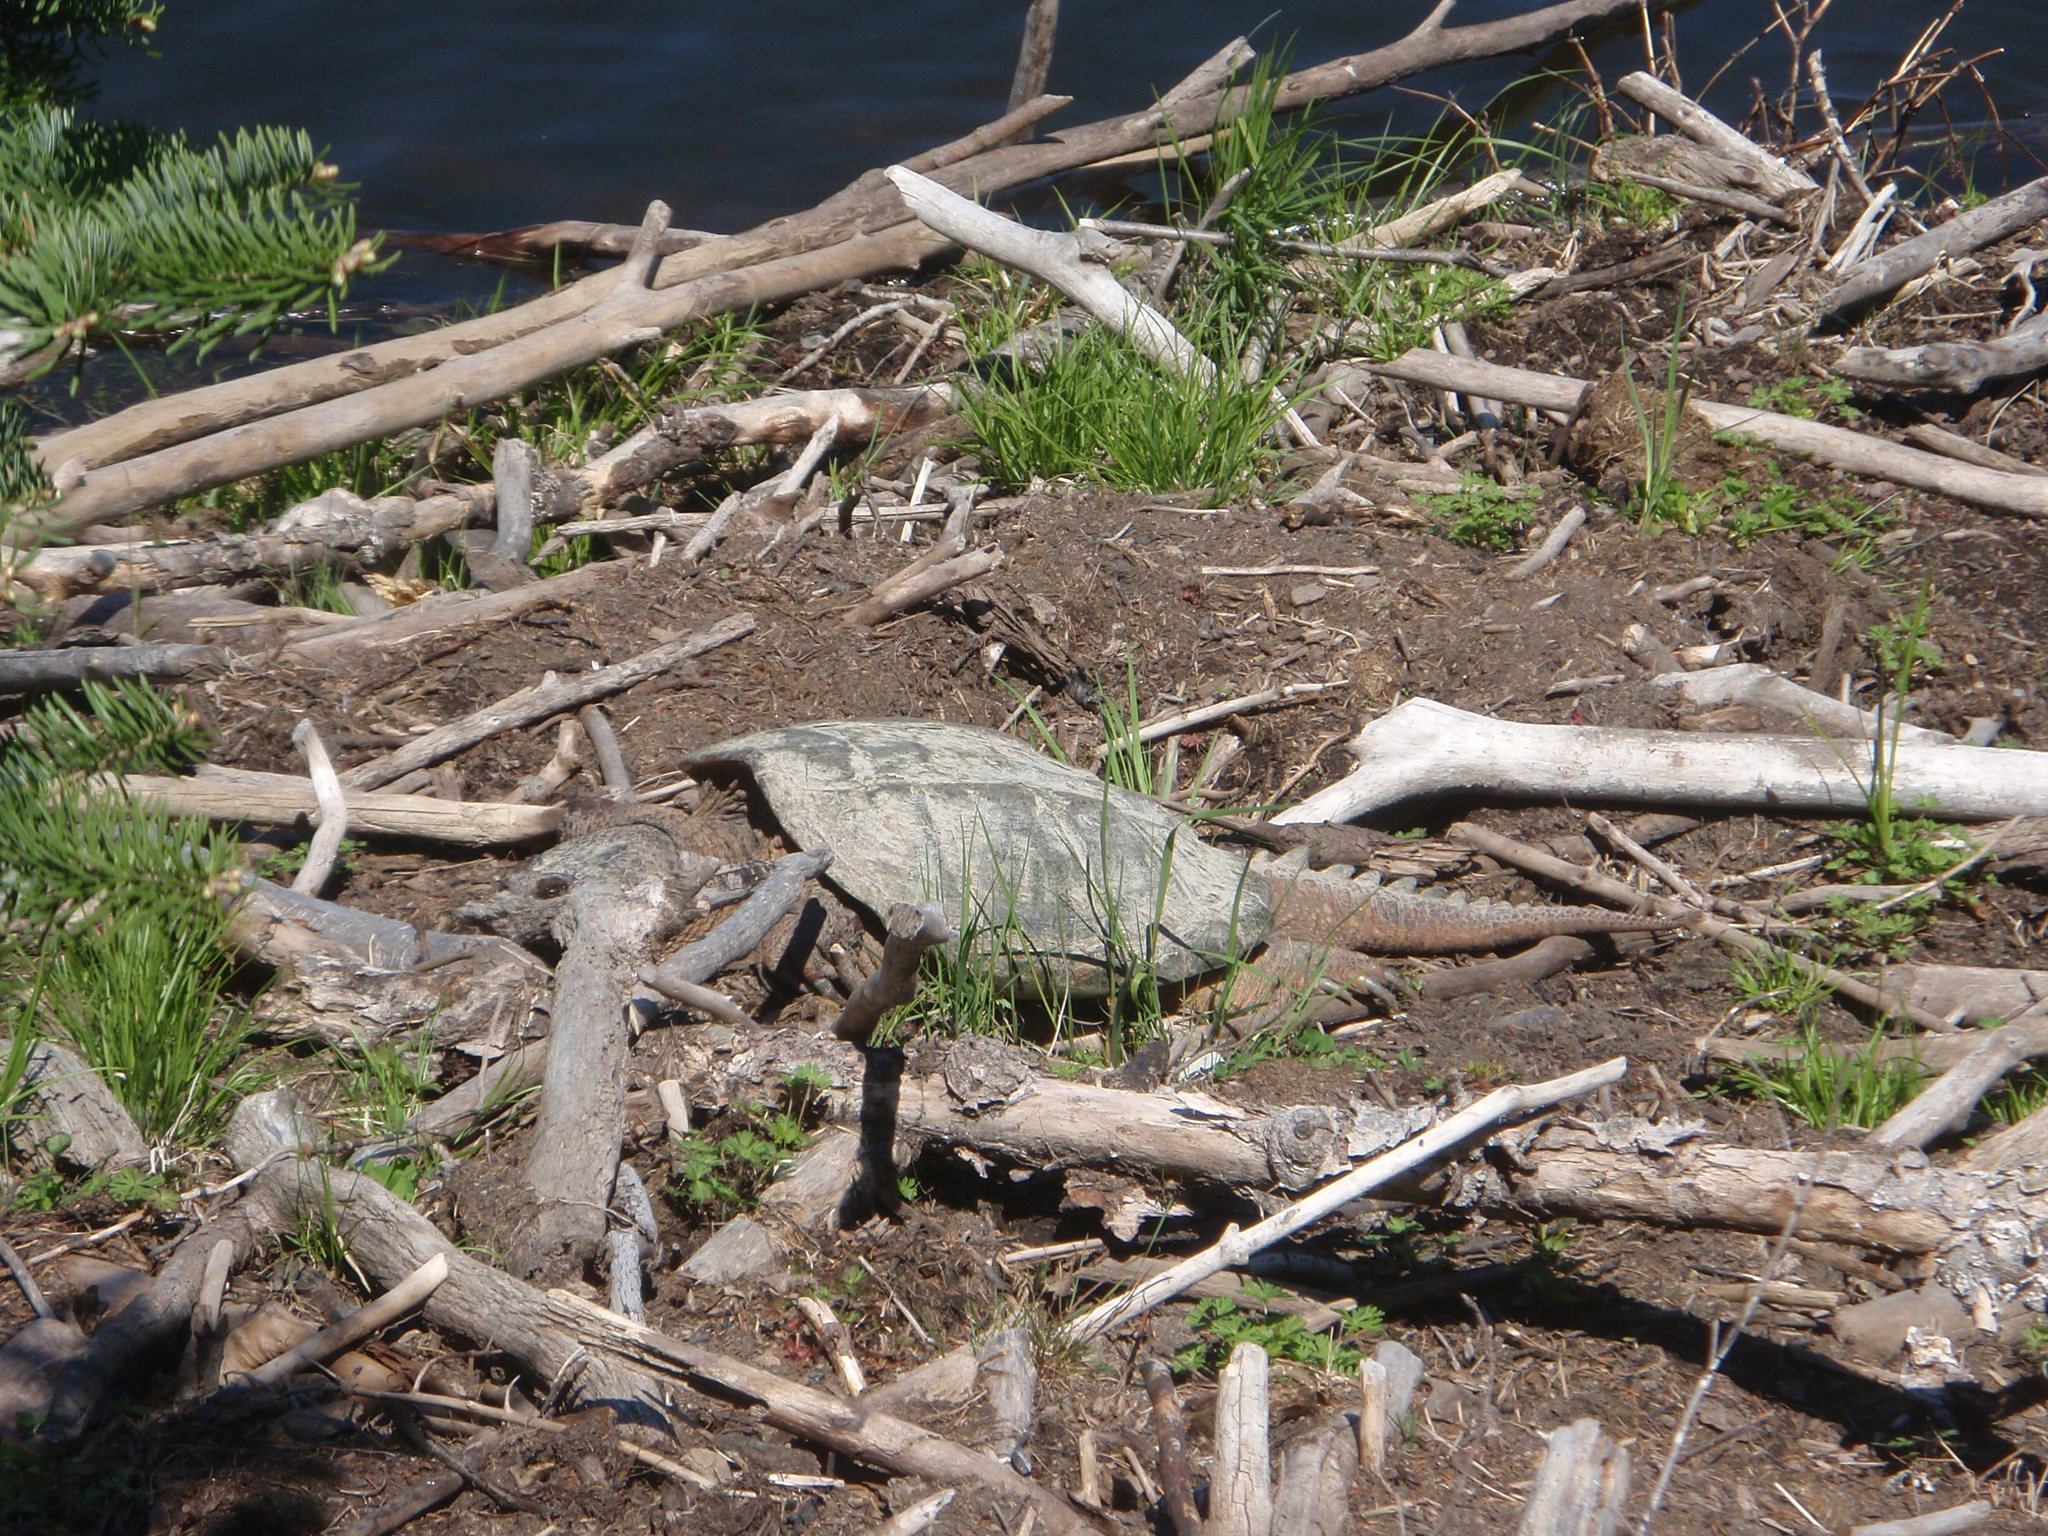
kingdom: Animalia
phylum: Chordata
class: Testudines
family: Chelydridae
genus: Chelydra
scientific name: Chelydra serpentina
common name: Common snapping turtle
